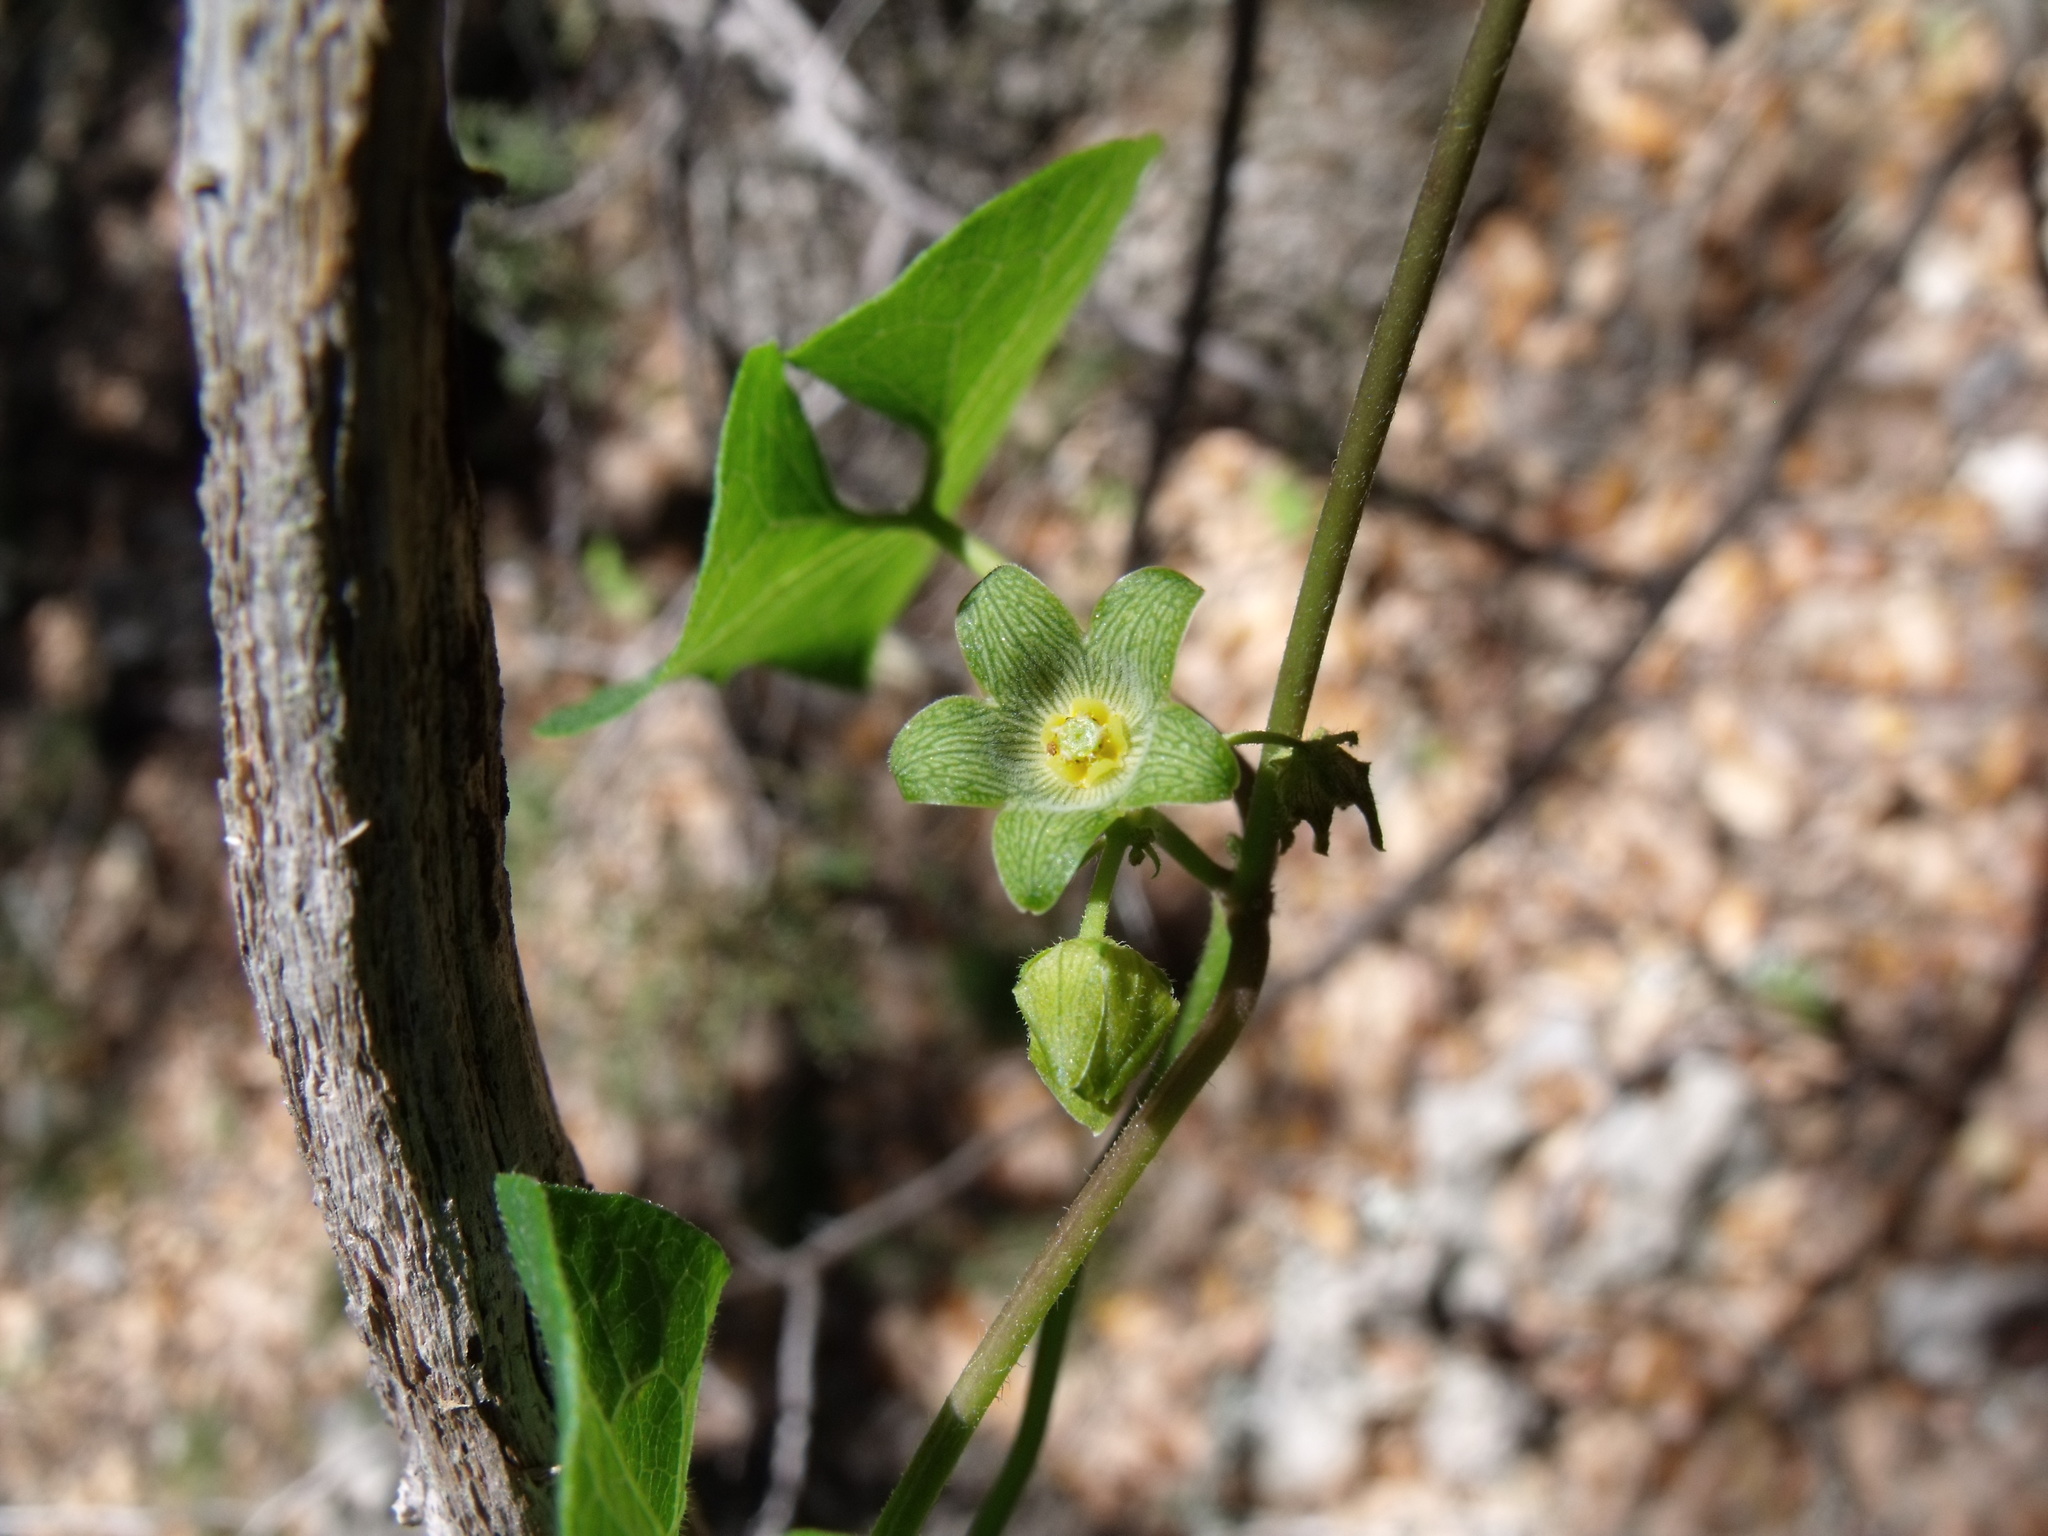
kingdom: Plantae
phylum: Tracheophyta
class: Magnoliopsida
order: Gentianales
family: Apocynaceae
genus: Matelea
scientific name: Matelea edwardsensis
